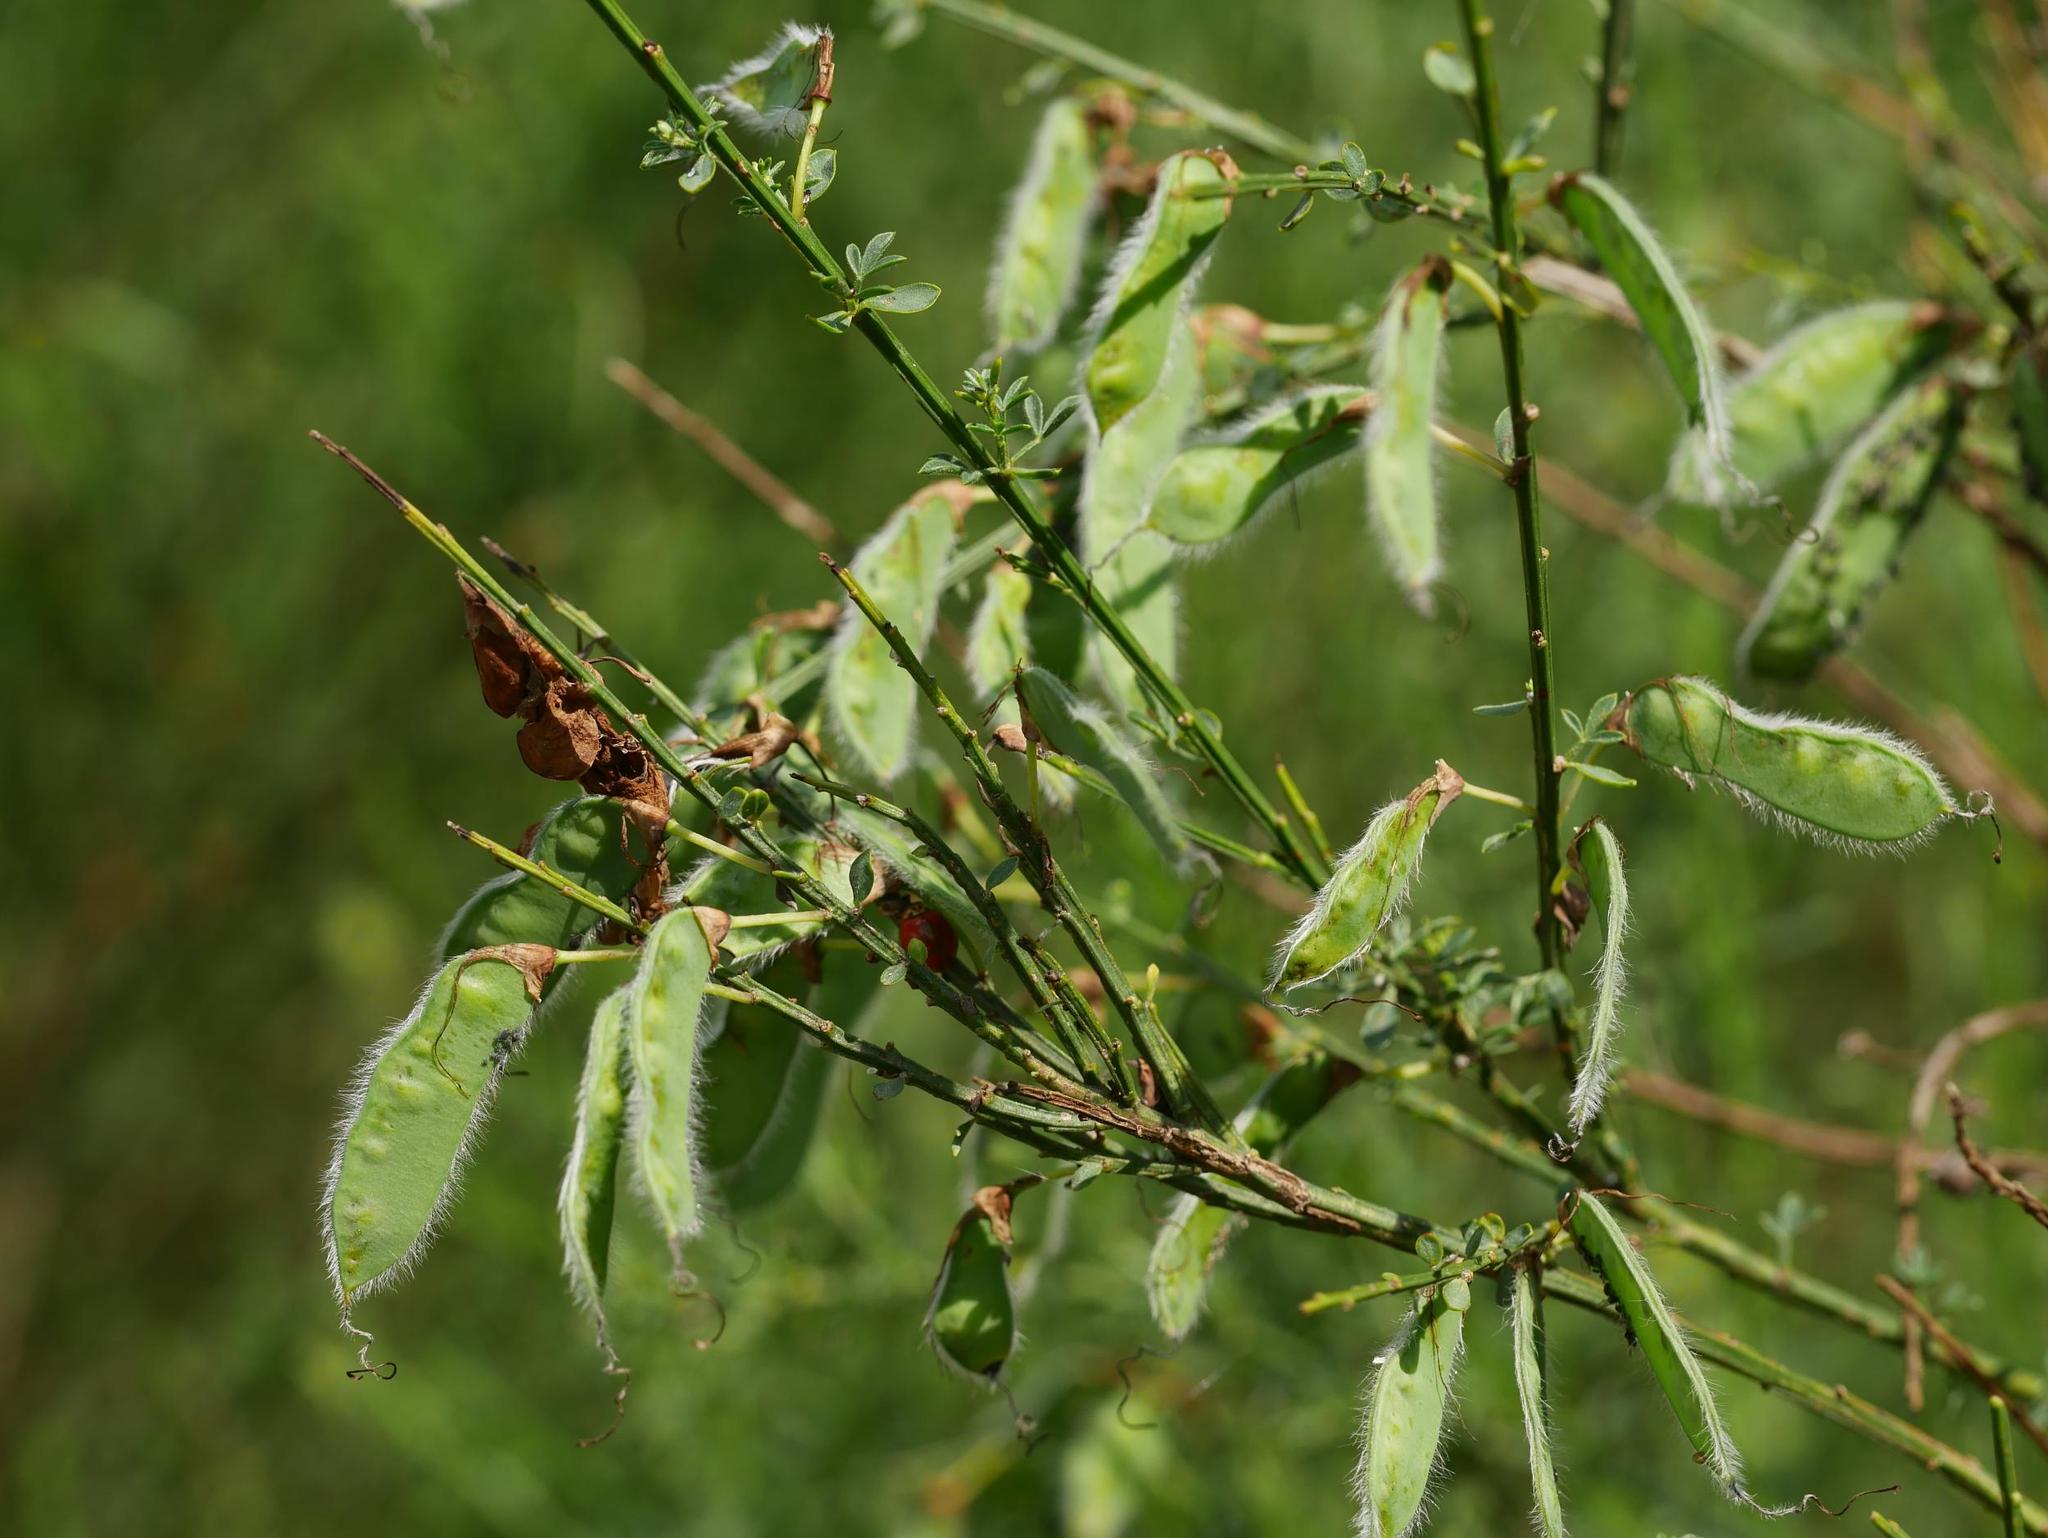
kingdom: Plantae
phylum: Tracheophyta
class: Magnoliopsida
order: Fabales
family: Fabaceae
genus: Cytisus
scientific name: Cytisus scoparius
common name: Scotch broom
